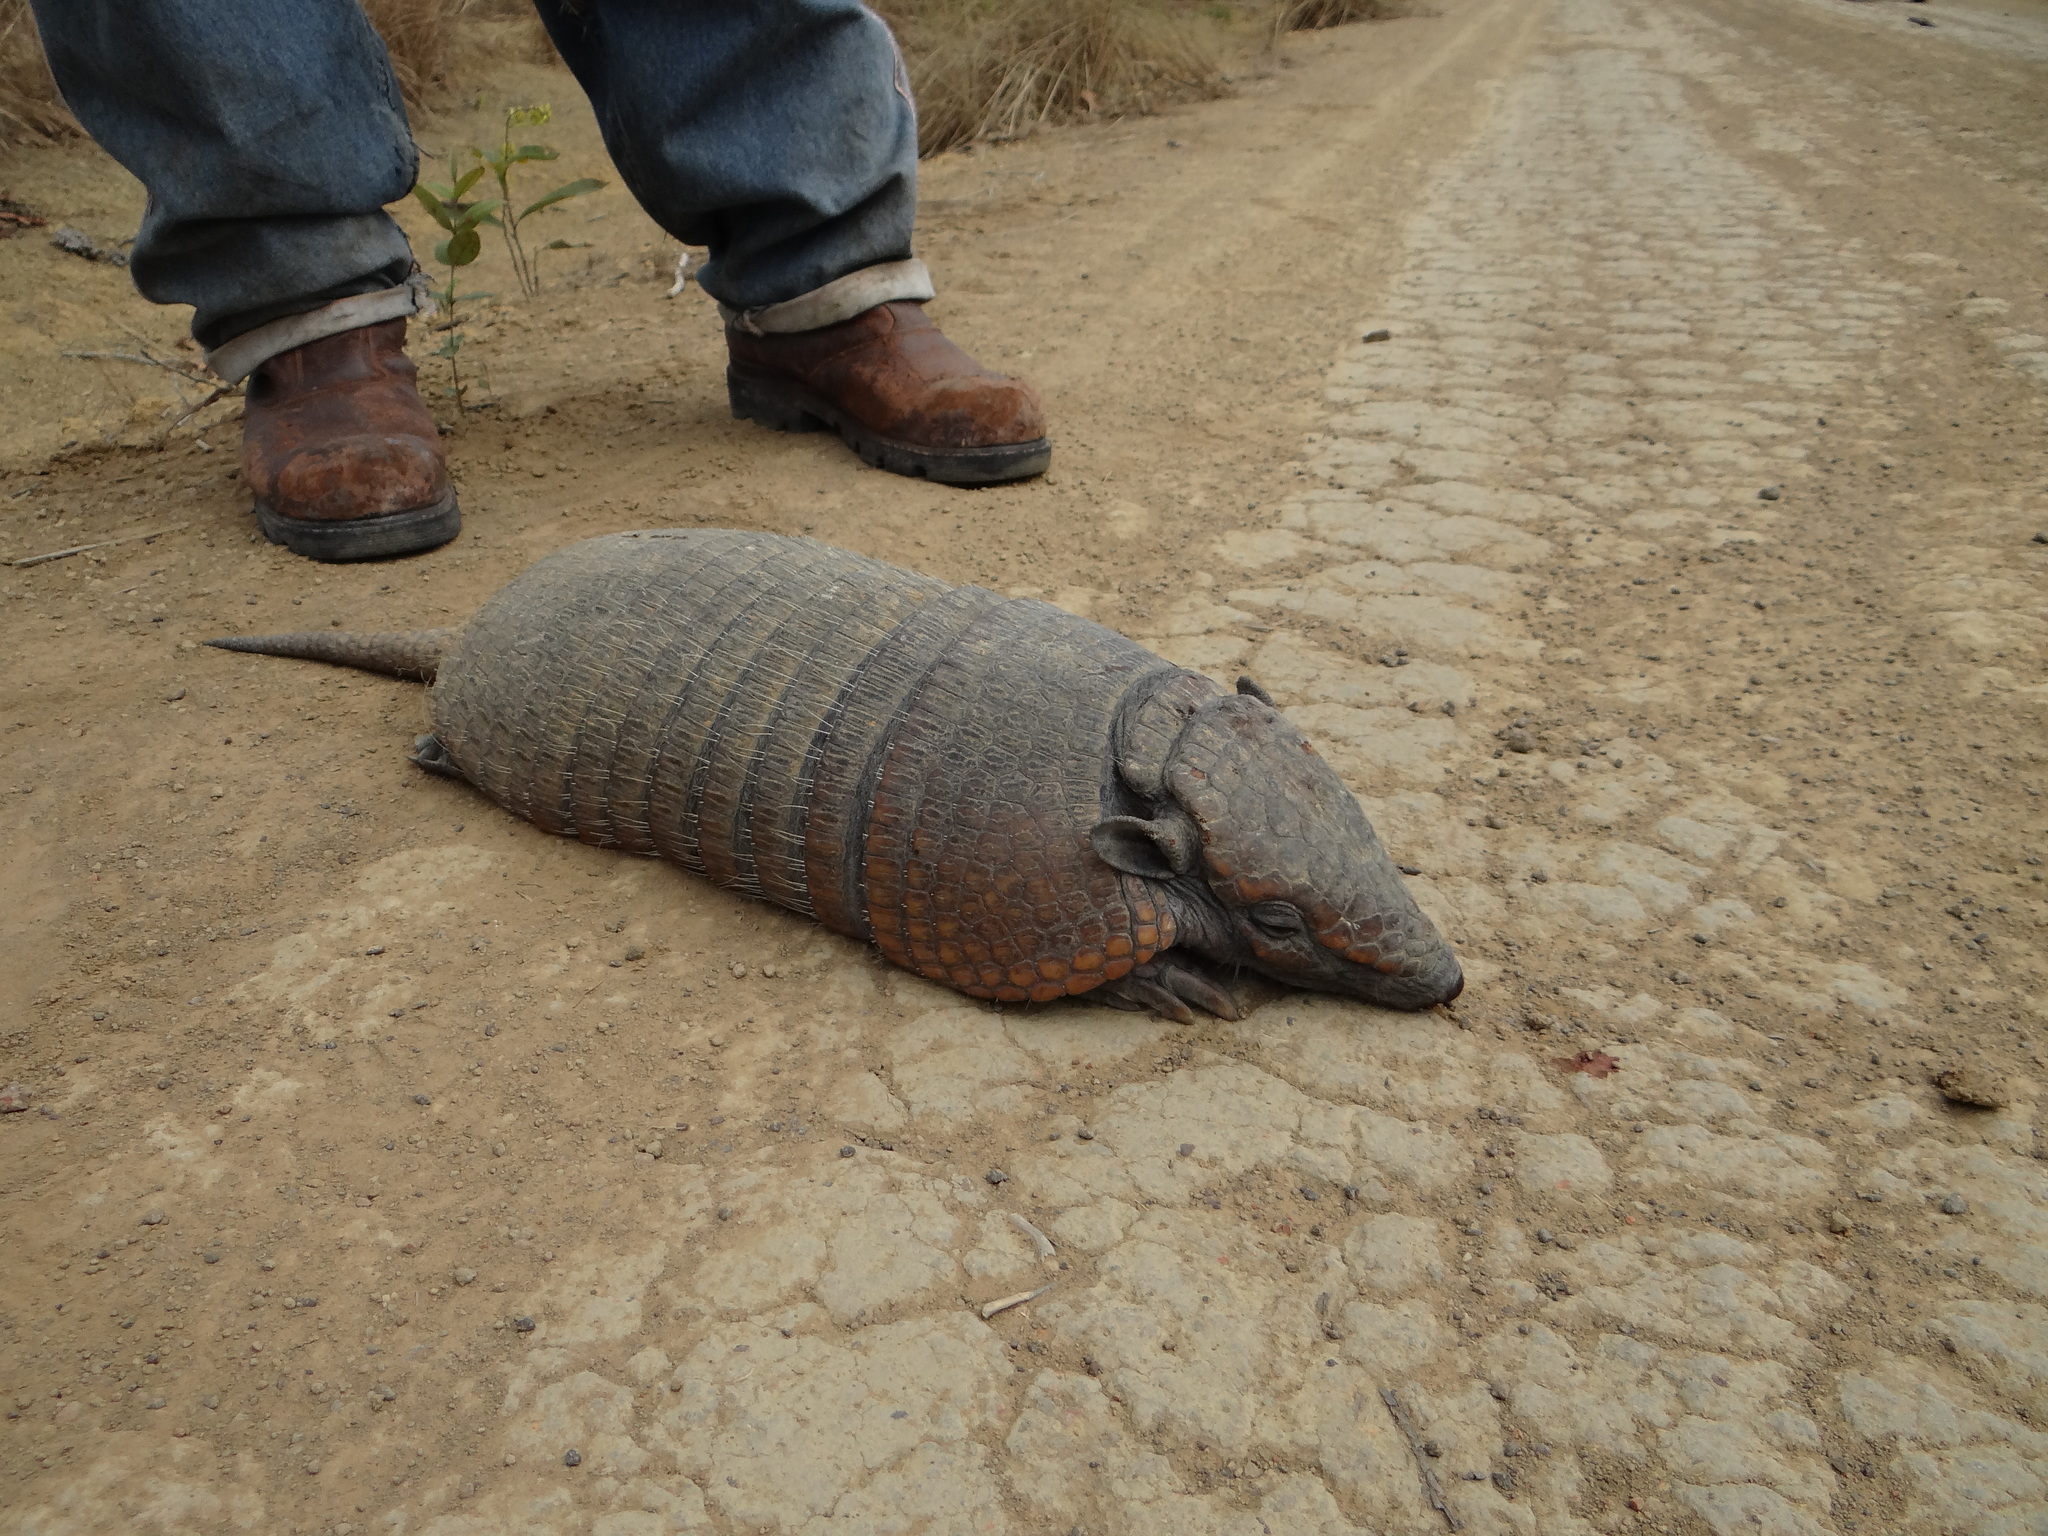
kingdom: Animalia
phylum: Chordata
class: Mammalia
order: Cingulata
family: Dasypodidae
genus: Euphractus
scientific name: Euphractus sexcinctus
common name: Six-banded armadillo
